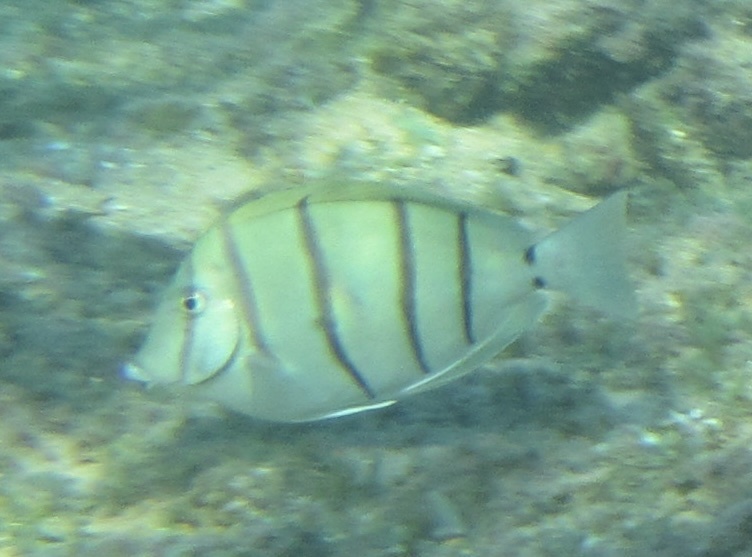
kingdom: Animalia
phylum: Chordata
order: Perciformes
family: Acanthuridae
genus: Acanthurus
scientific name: Acanthurus triostegus
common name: Convict surgeonfish
